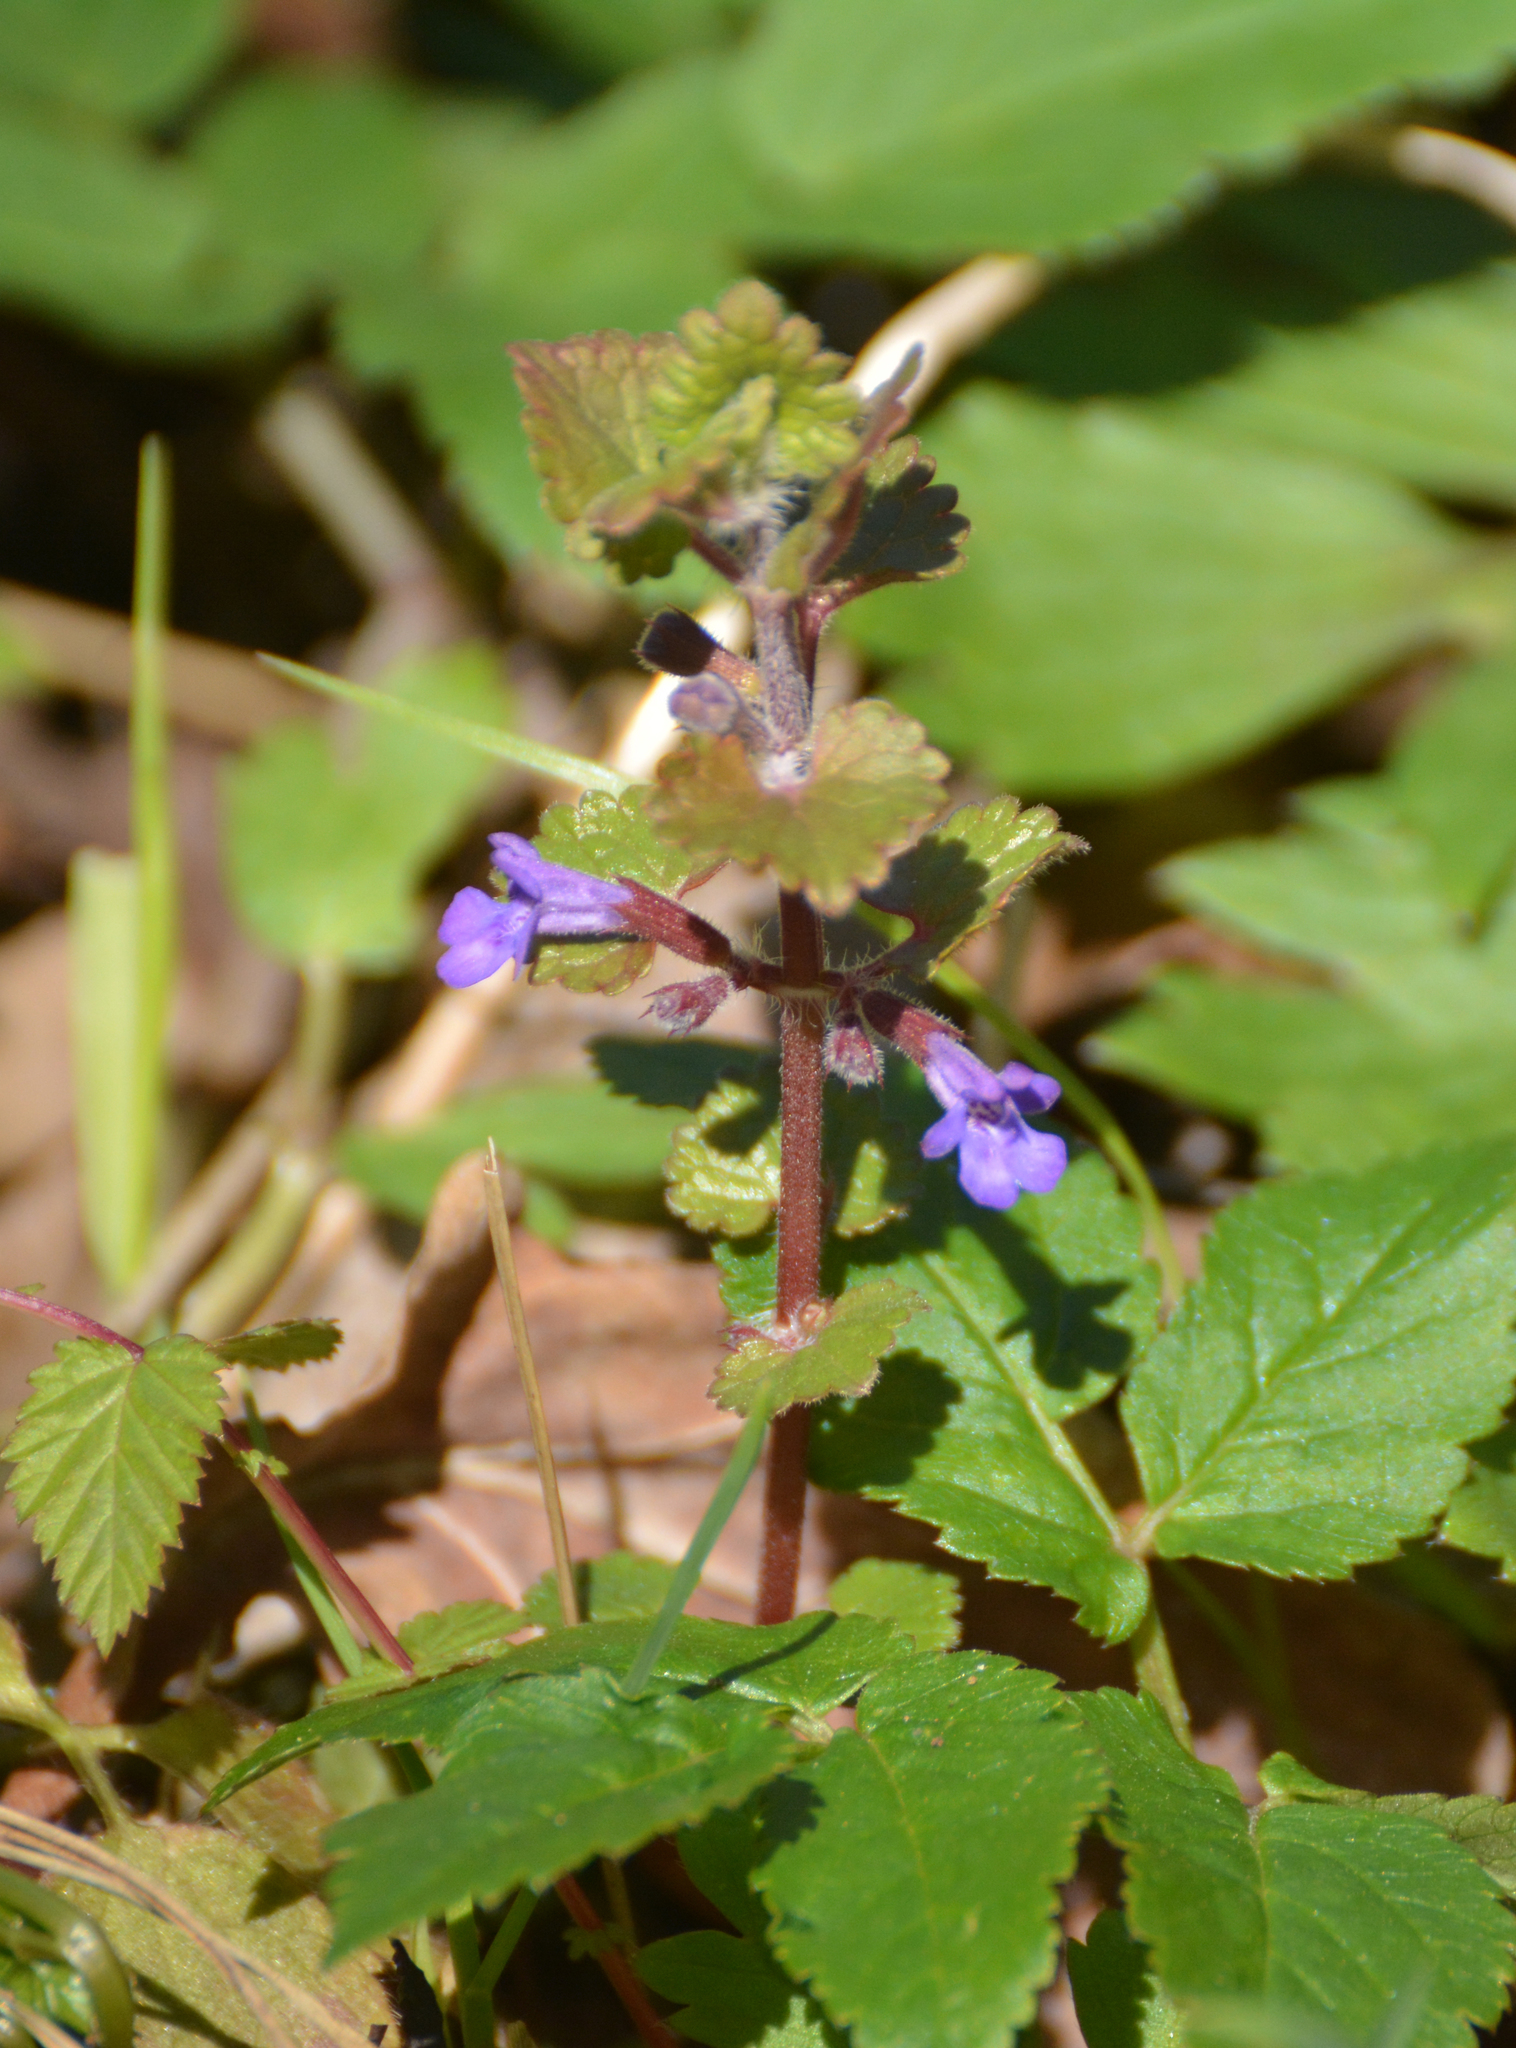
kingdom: Plantae
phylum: Tracheophyta
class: Magnoliopsida
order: Lamiales
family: Lamiaceae
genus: Glechoma
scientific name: Glechoma hederacea
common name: Ground ivy
